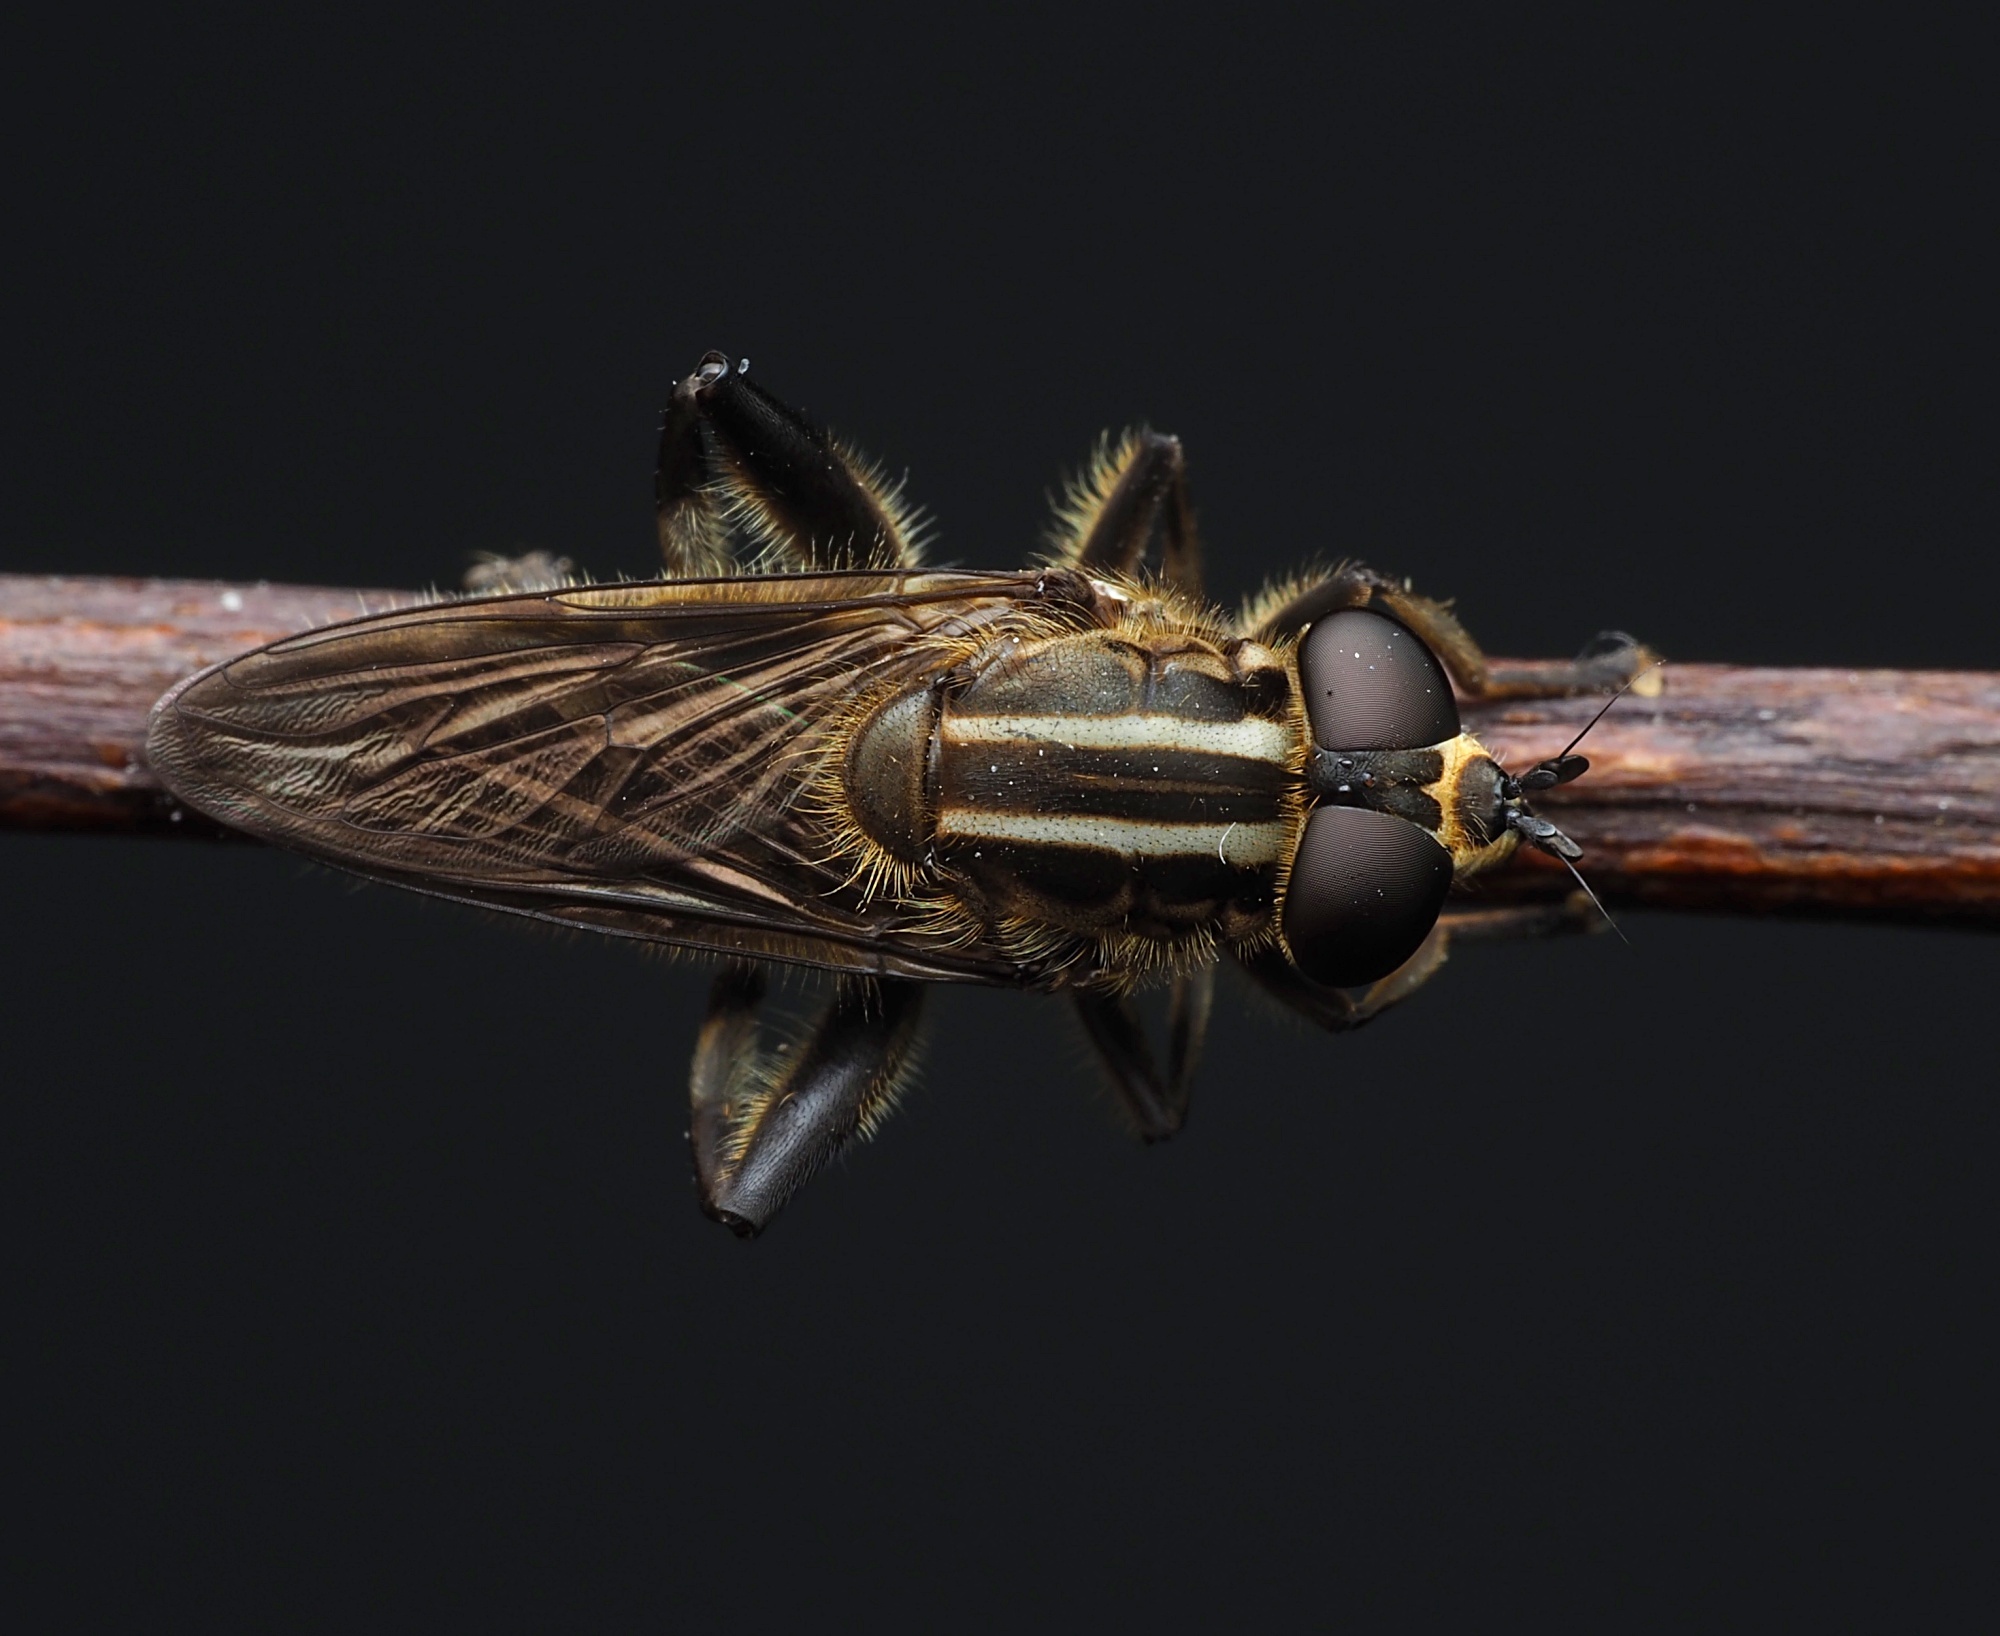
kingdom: Animalia
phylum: Arthropoda
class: Insecta
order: Diptera
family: Syrphidae
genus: Orthoprosopa
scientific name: Orthoprosopa bilineata
